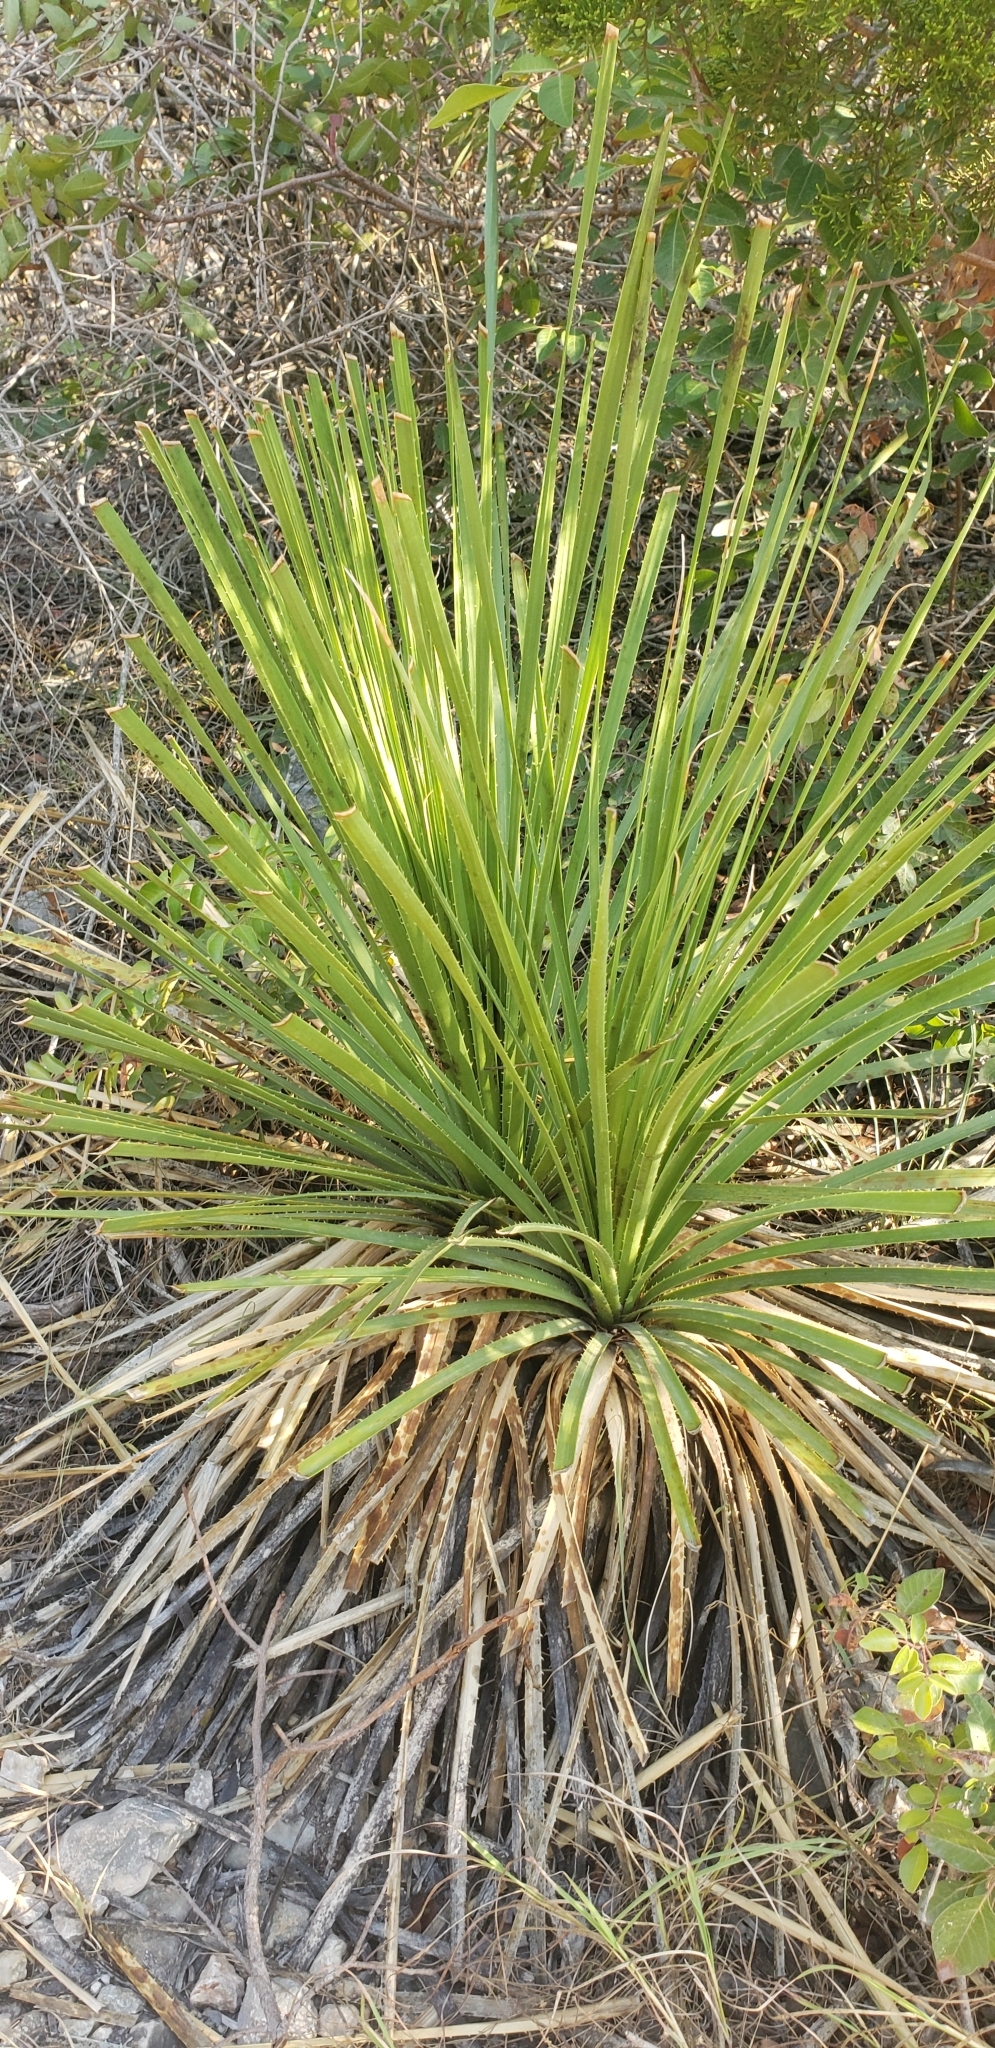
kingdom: Plantae
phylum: Tracheophyta
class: Liliopsida
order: Asparagales
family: Asparagaceae
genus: Dasylirion
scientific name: Dasylirion texanum
